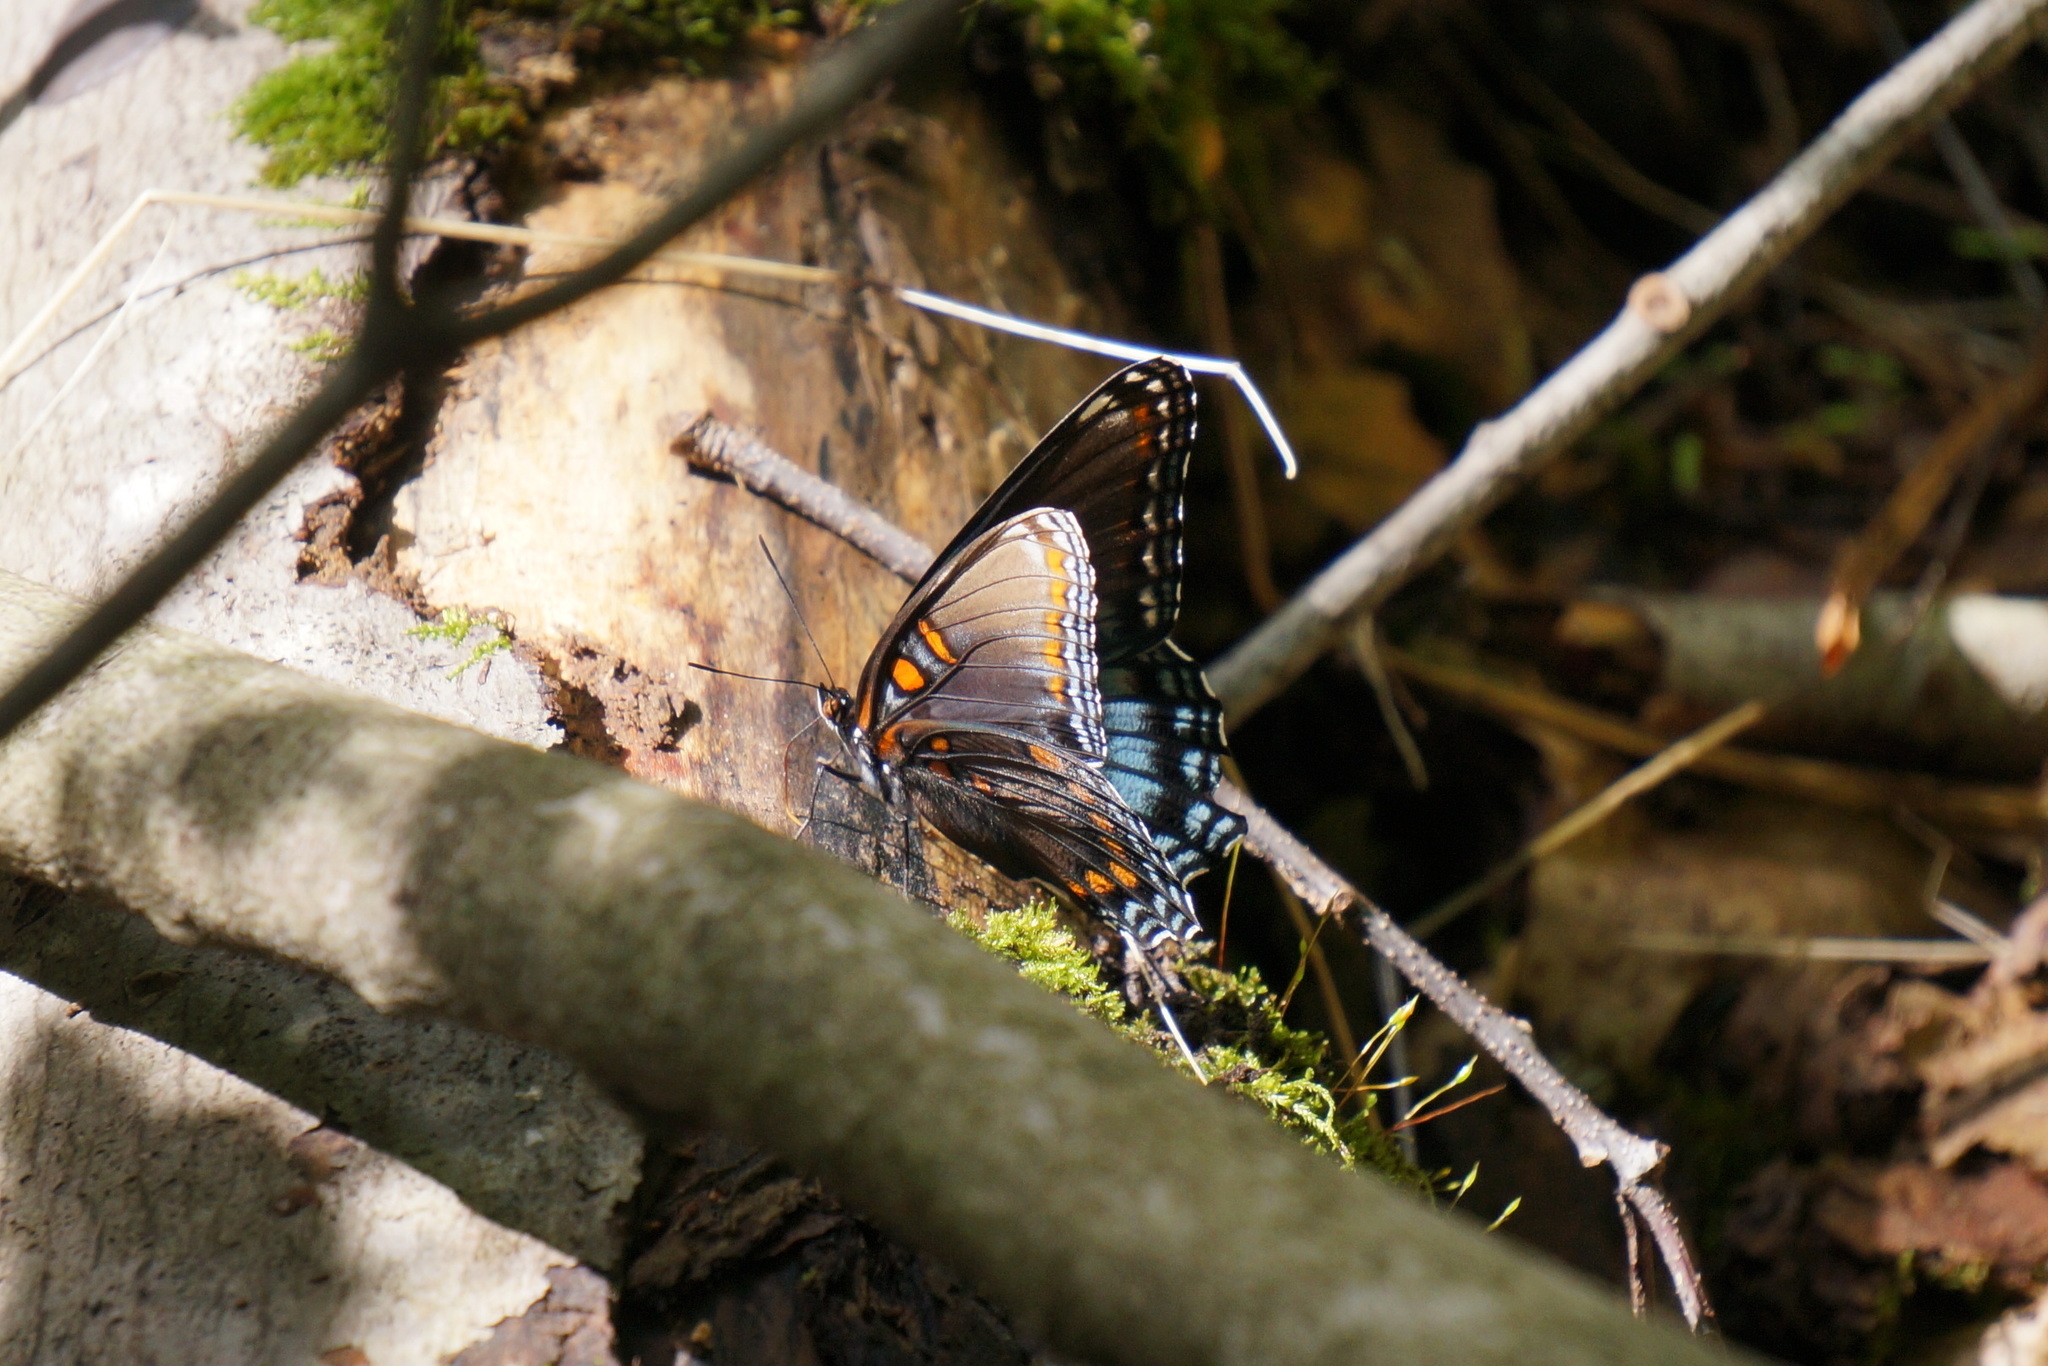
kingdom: Animalia
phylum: Arthropoda
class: Insecta
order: Lepidoptera
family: Nymphalidae
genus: Limenitis
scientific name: Limenitis astyanax
